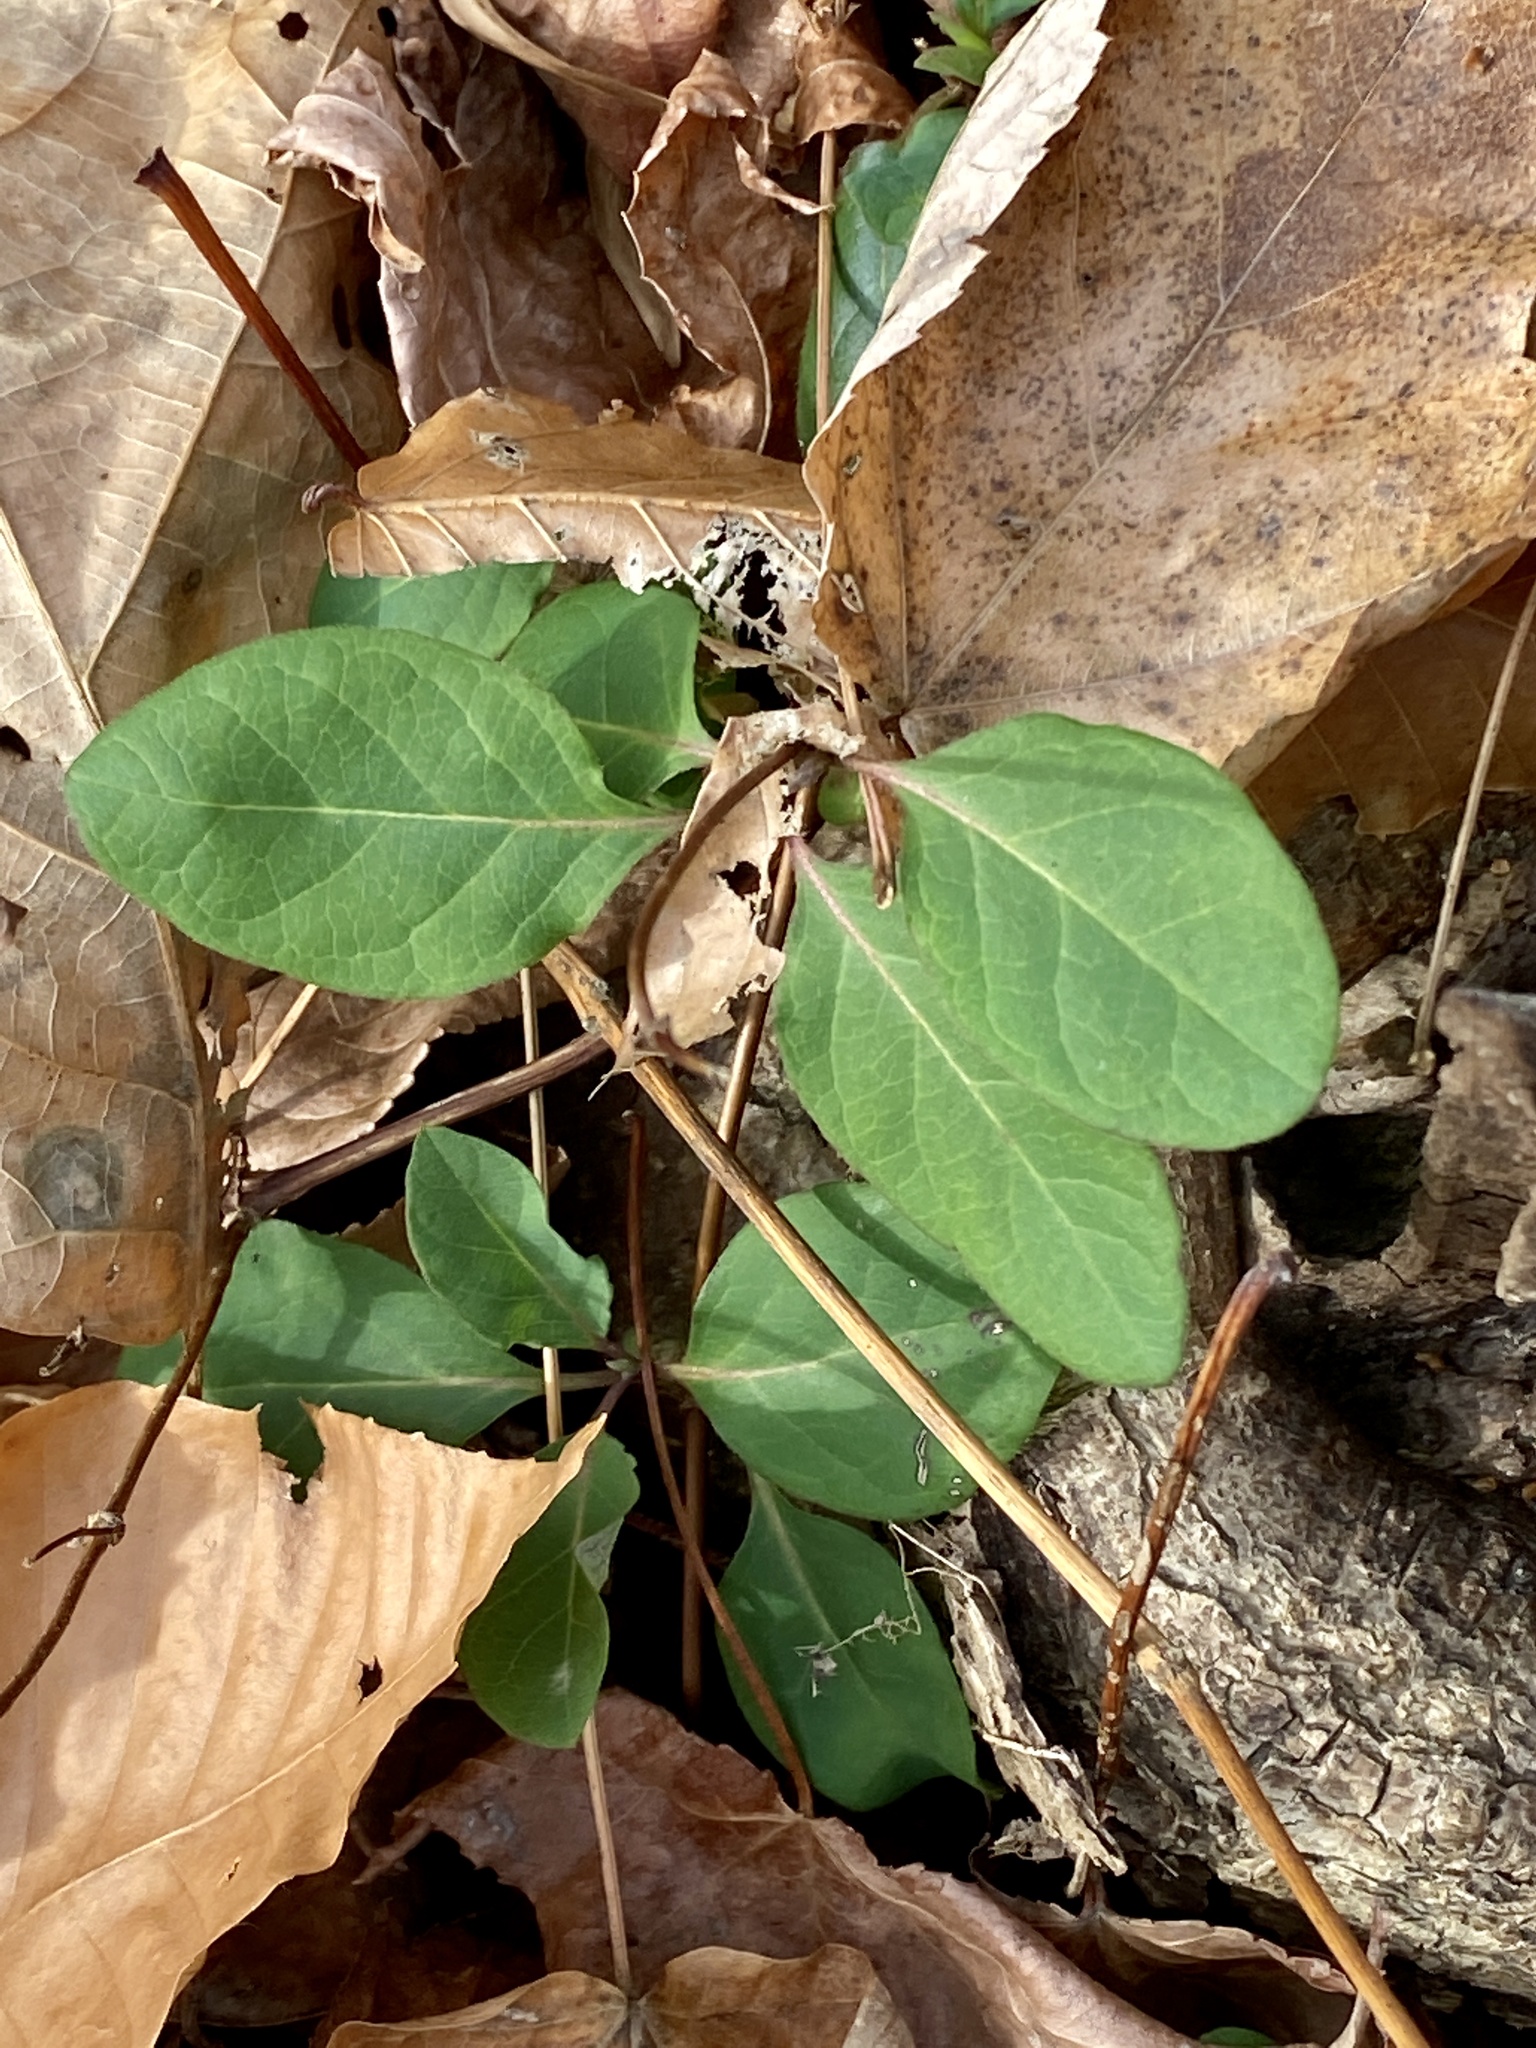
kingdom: Plantae
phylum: Tracheophyta
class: Magnoliopsida
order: Dipsacales
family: Caprifoliaceae
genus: Lonicera
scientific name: Lonicera japonica
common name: Japanese honeysuckle
